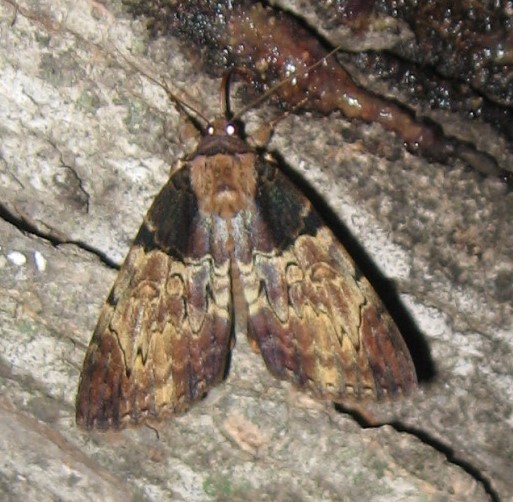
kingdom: Animalia
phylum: Arthropoda
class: Insecta
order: Lepidoptera
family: Erebidae
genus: Catocala
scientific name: Catocala nebulosa
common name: Clouded underwing
